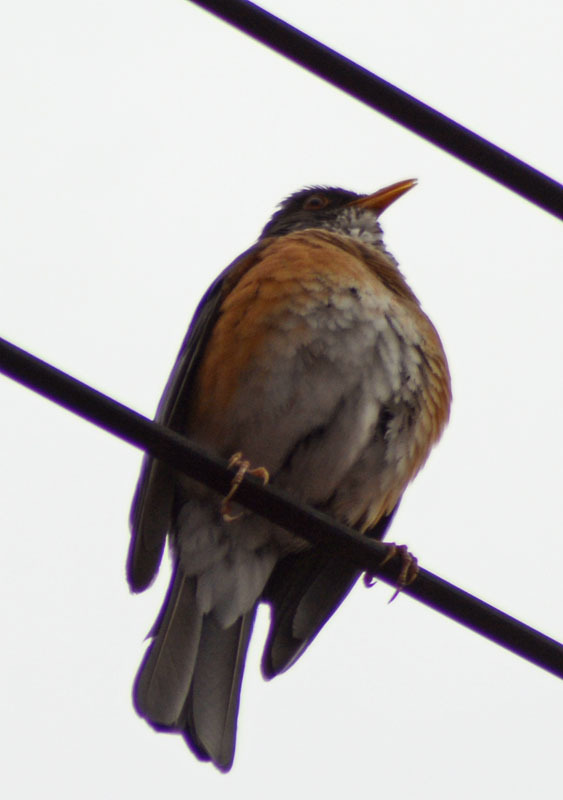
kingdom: Animalia
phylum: Chordata
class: Aves
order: Passeriformes
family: Turdidae
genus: Turdus
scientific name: Turdus rufopalliatus
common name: Rufous-backed robin
